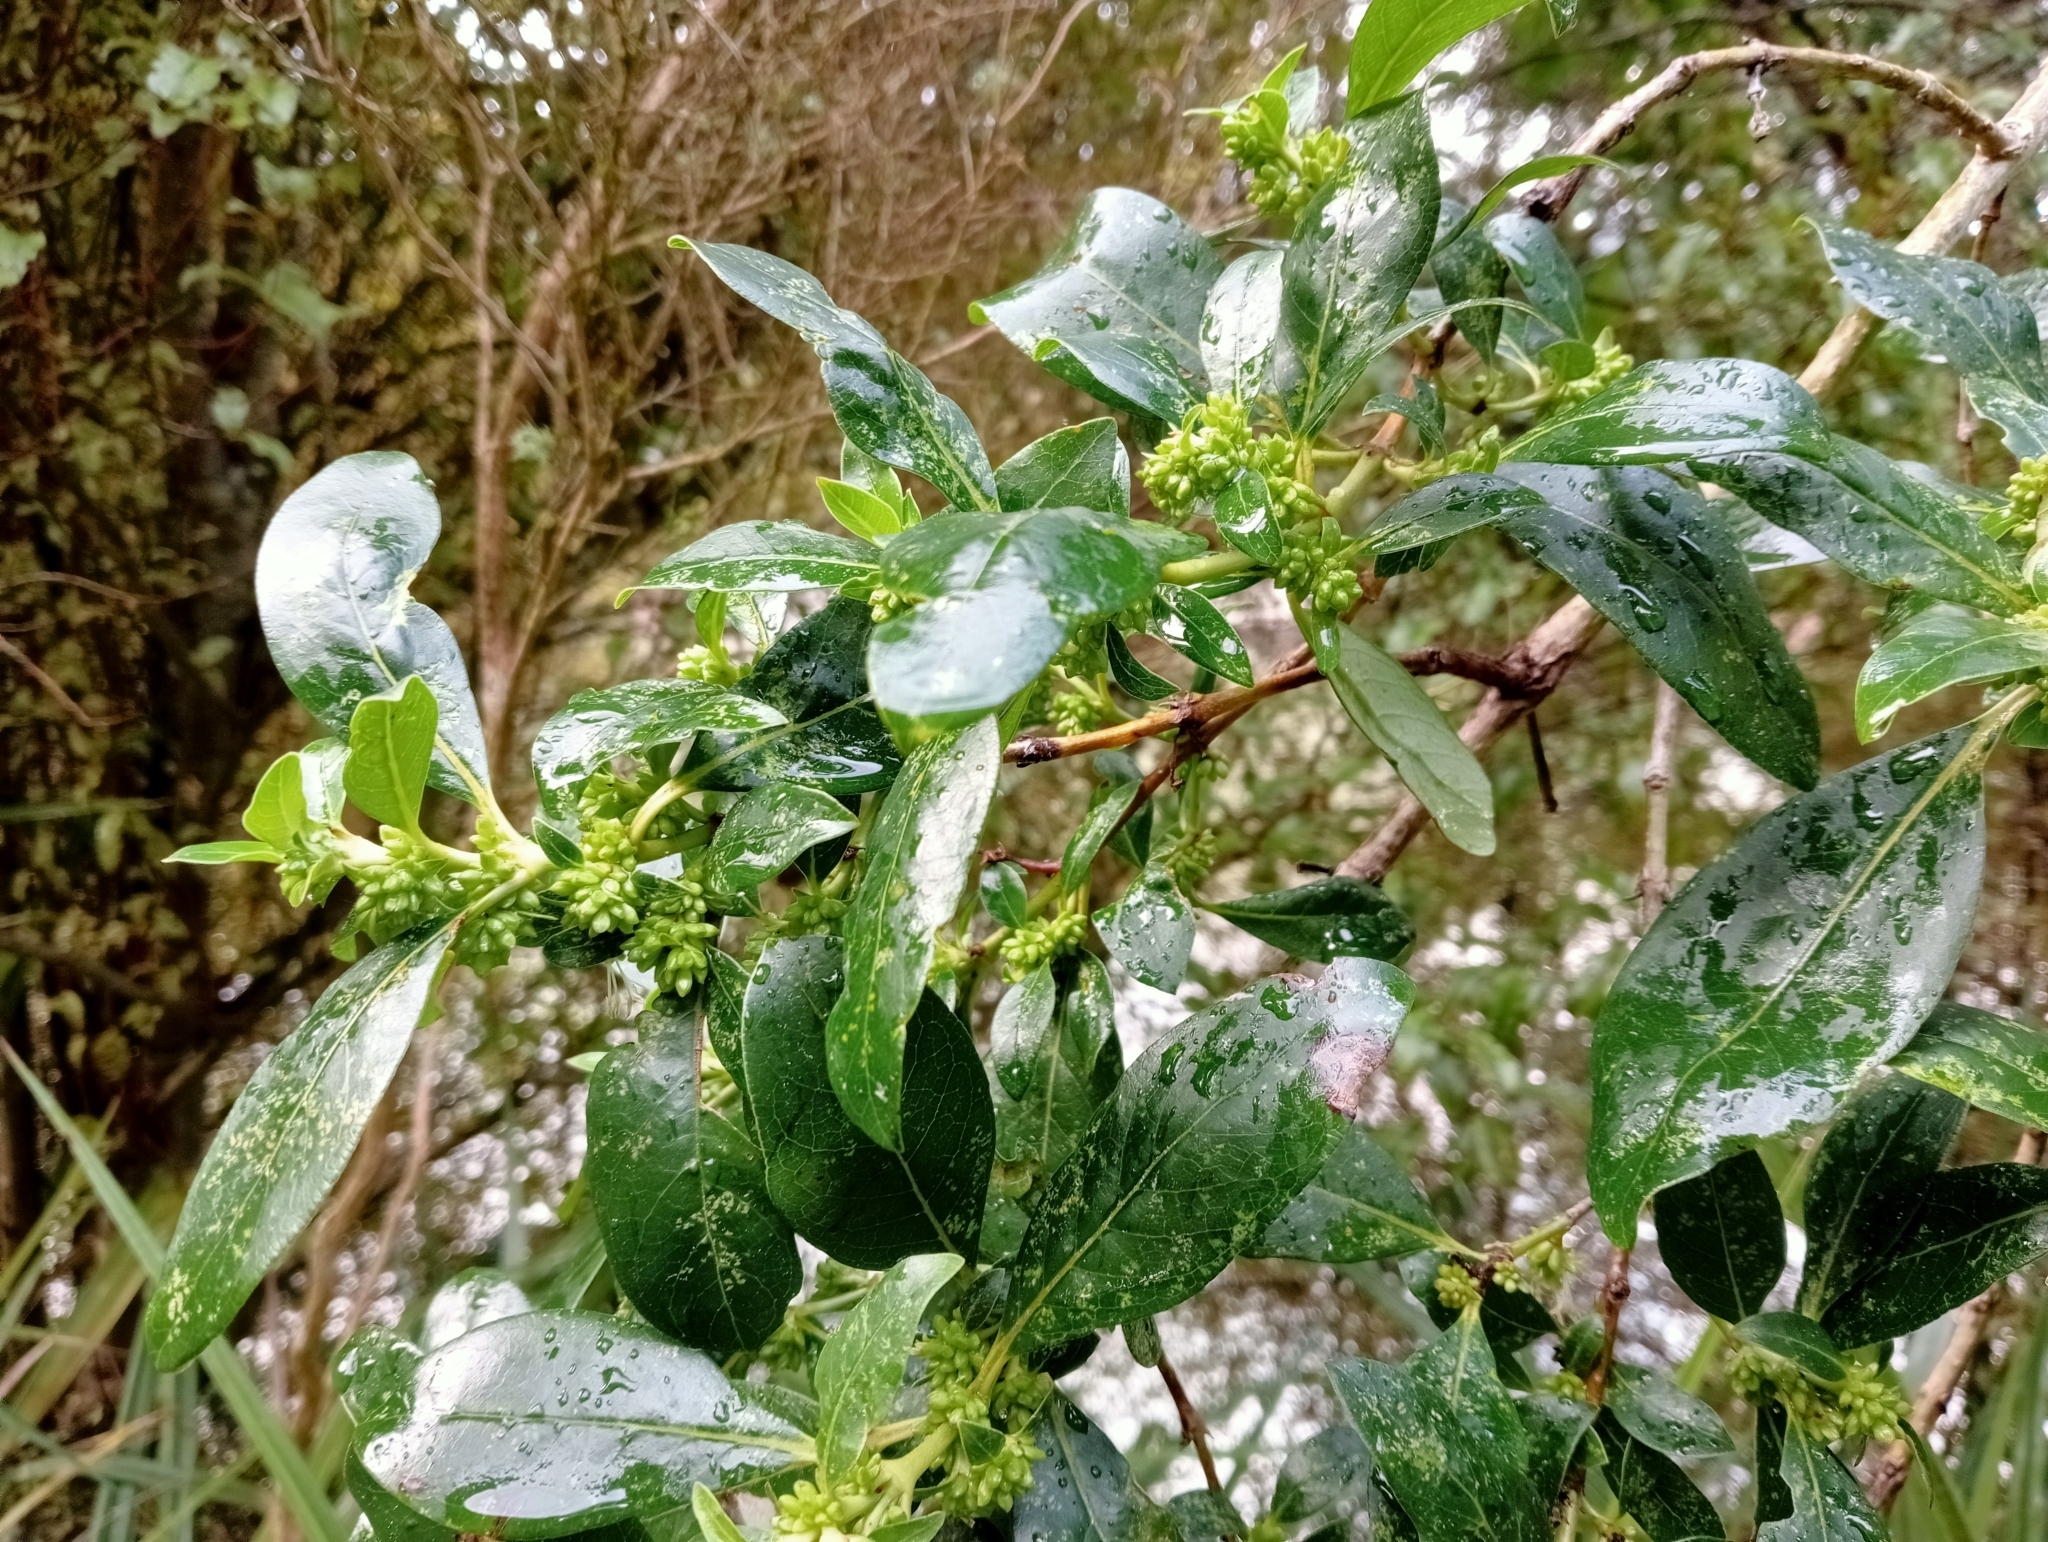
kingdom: Plantae
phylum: Tracheophyta
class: Magnoliopsida
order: Gentianales
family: Rubiaceae
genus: Coprosma
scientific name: Coprosma robusta
